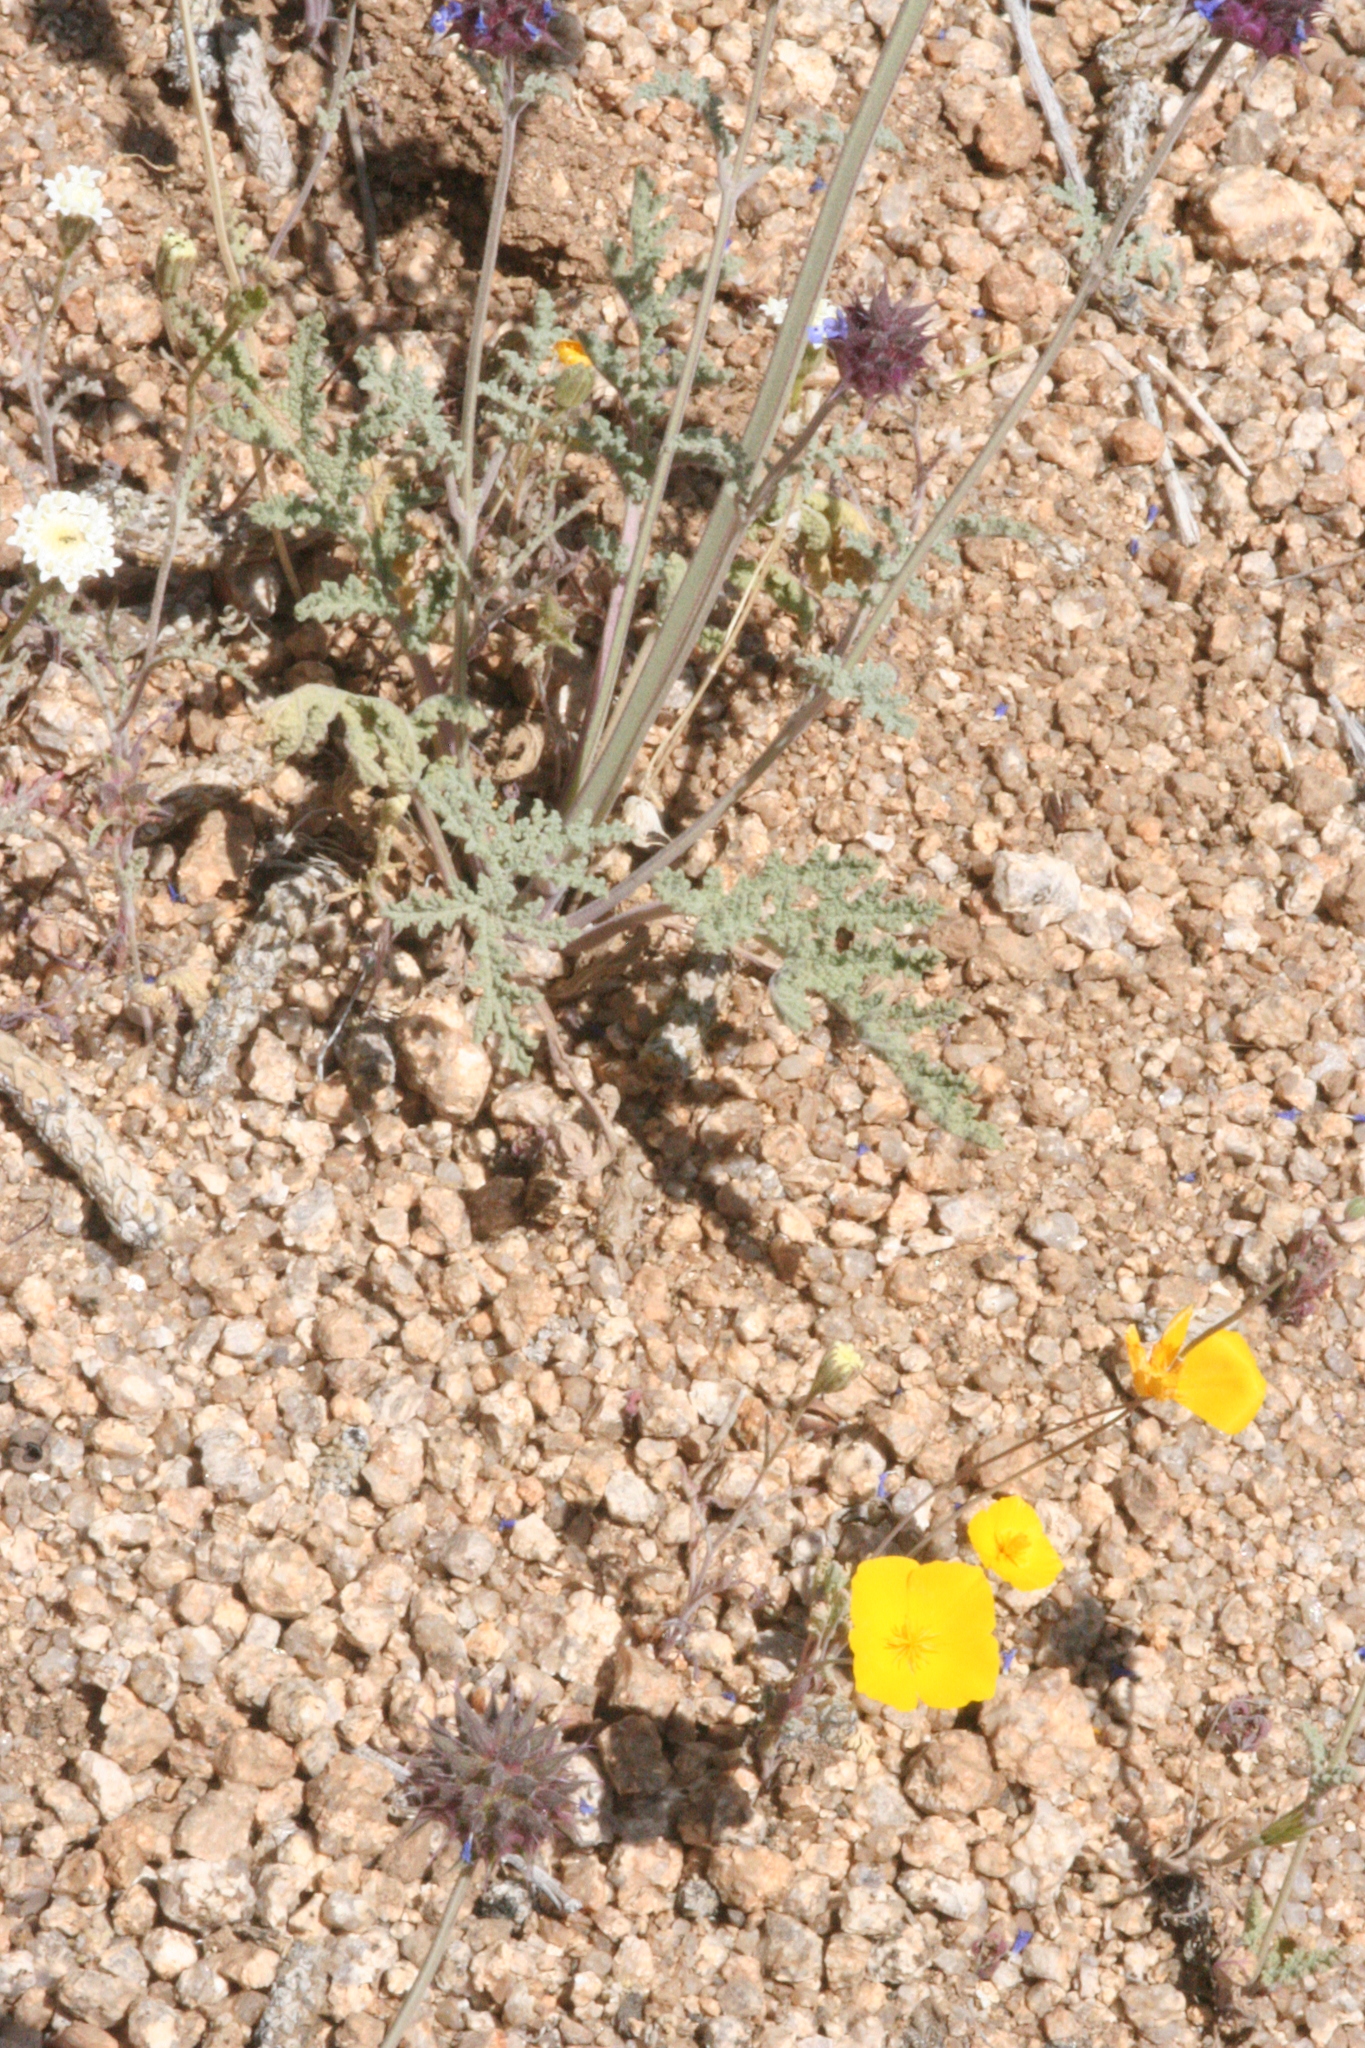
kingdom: Plantae
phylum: Tracheophyta
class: Magnoliopsida
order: Lamiales
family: Lamiaceae
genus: Salvia
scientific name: Salvia columbariae
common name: Chia
